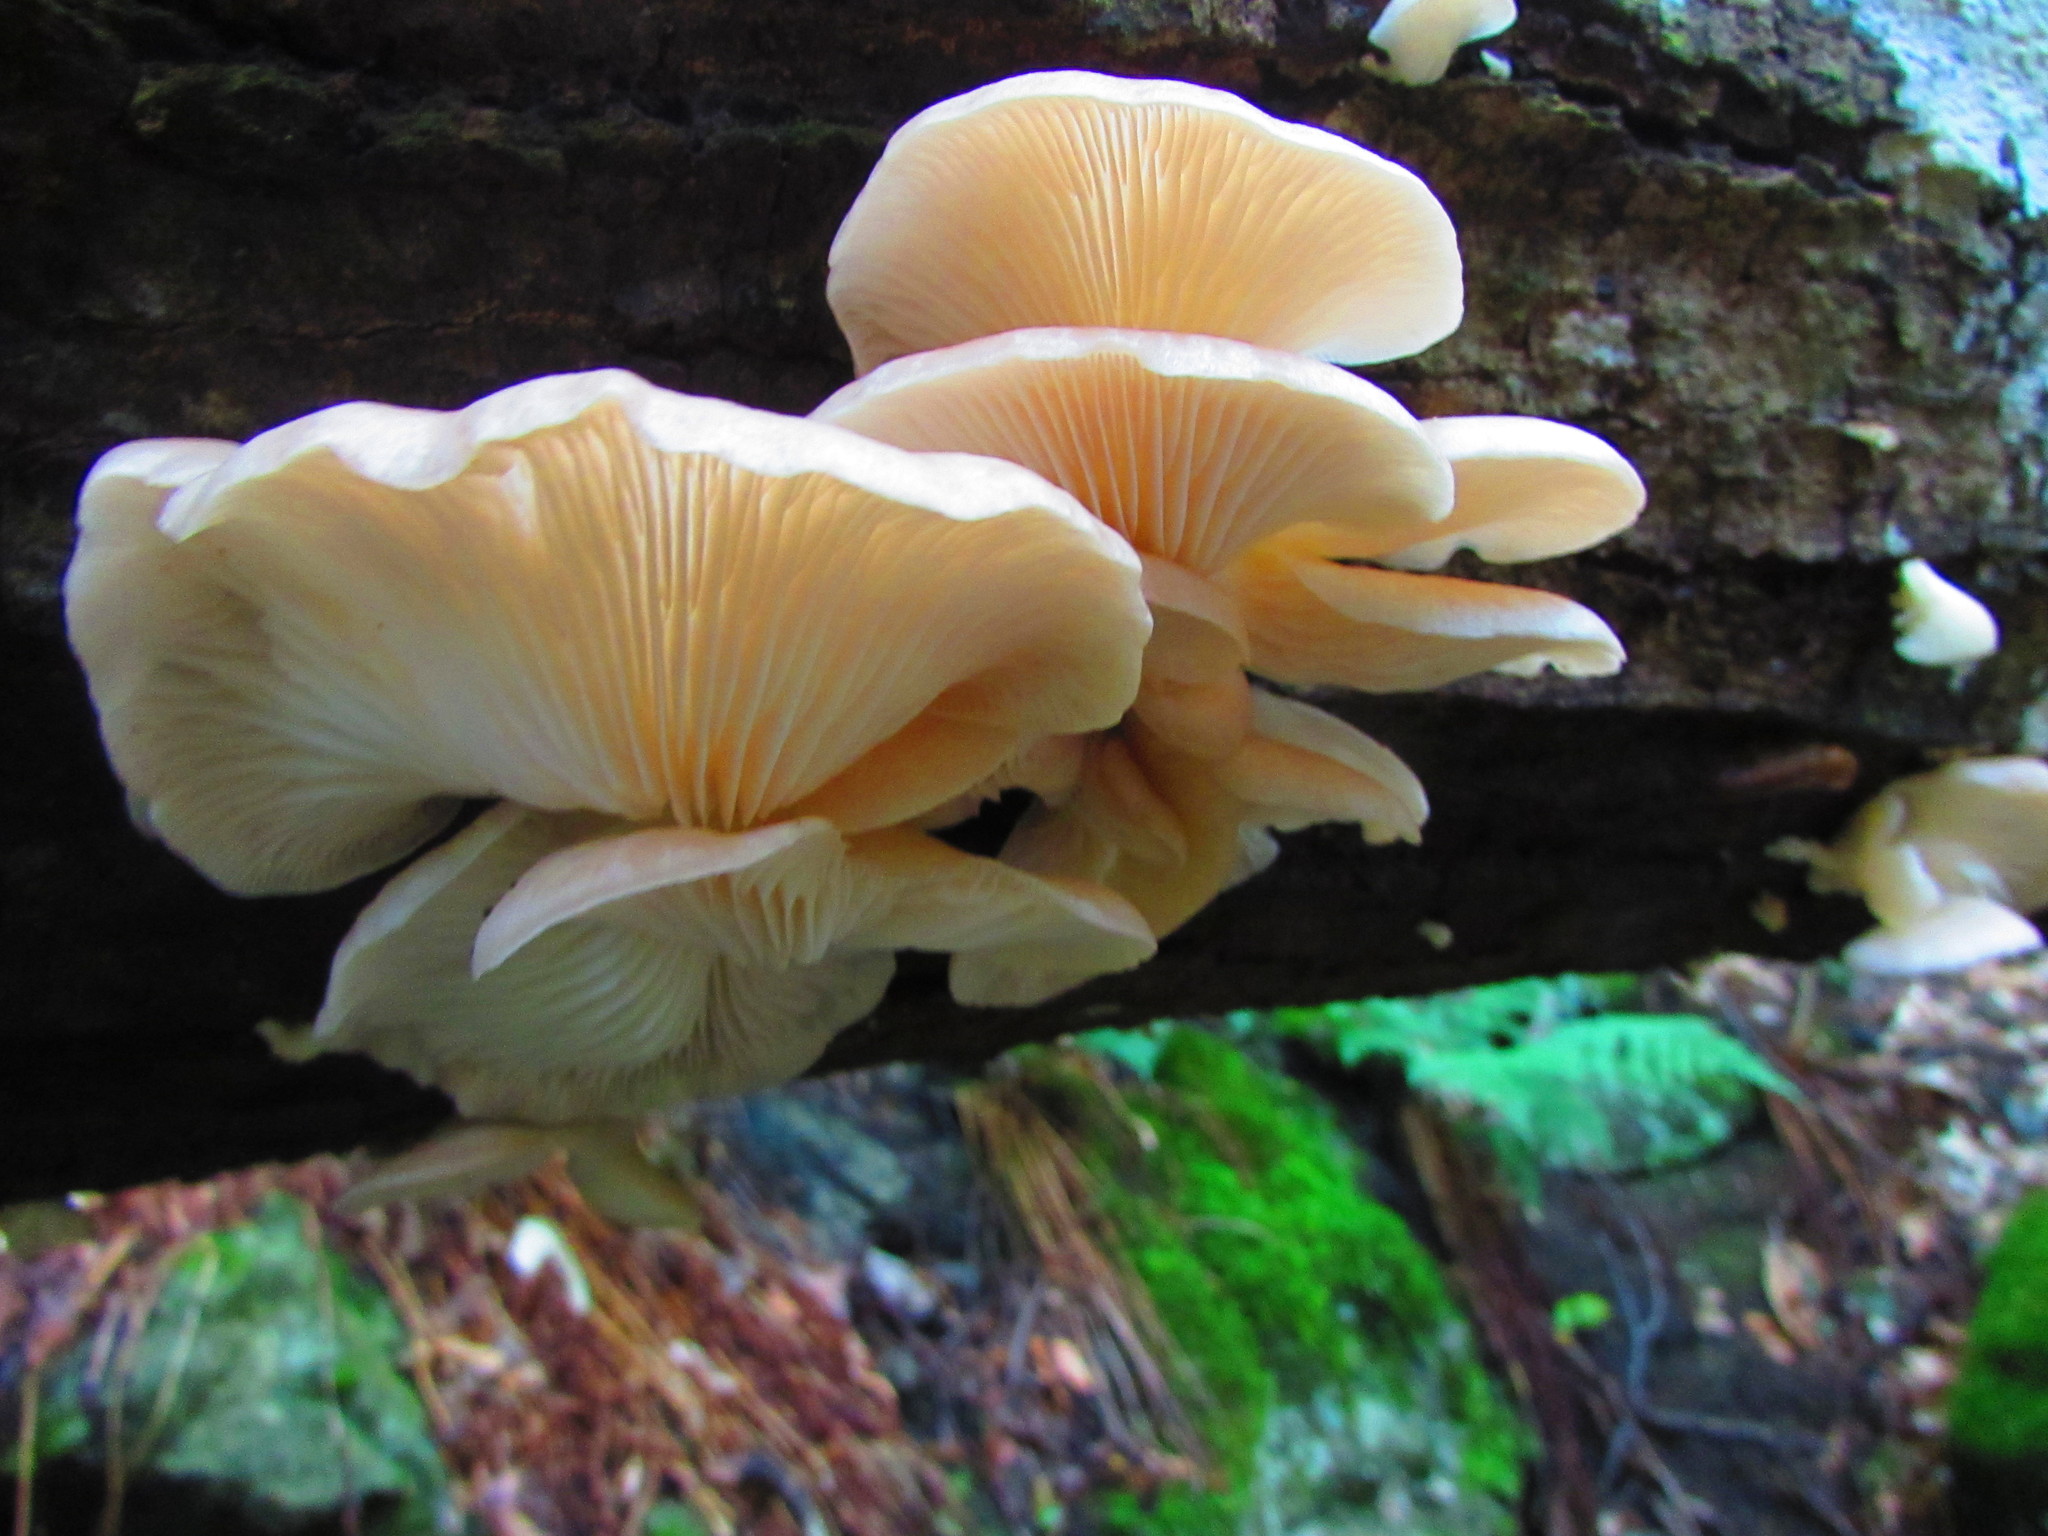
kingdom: Fungi
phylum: Basidiomycota
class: Agaricomycetes
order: Agaricales
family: Pleurotaceae
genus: Pleurotus
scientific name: Pleurotus ostreatus
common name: Oyster mushroom
